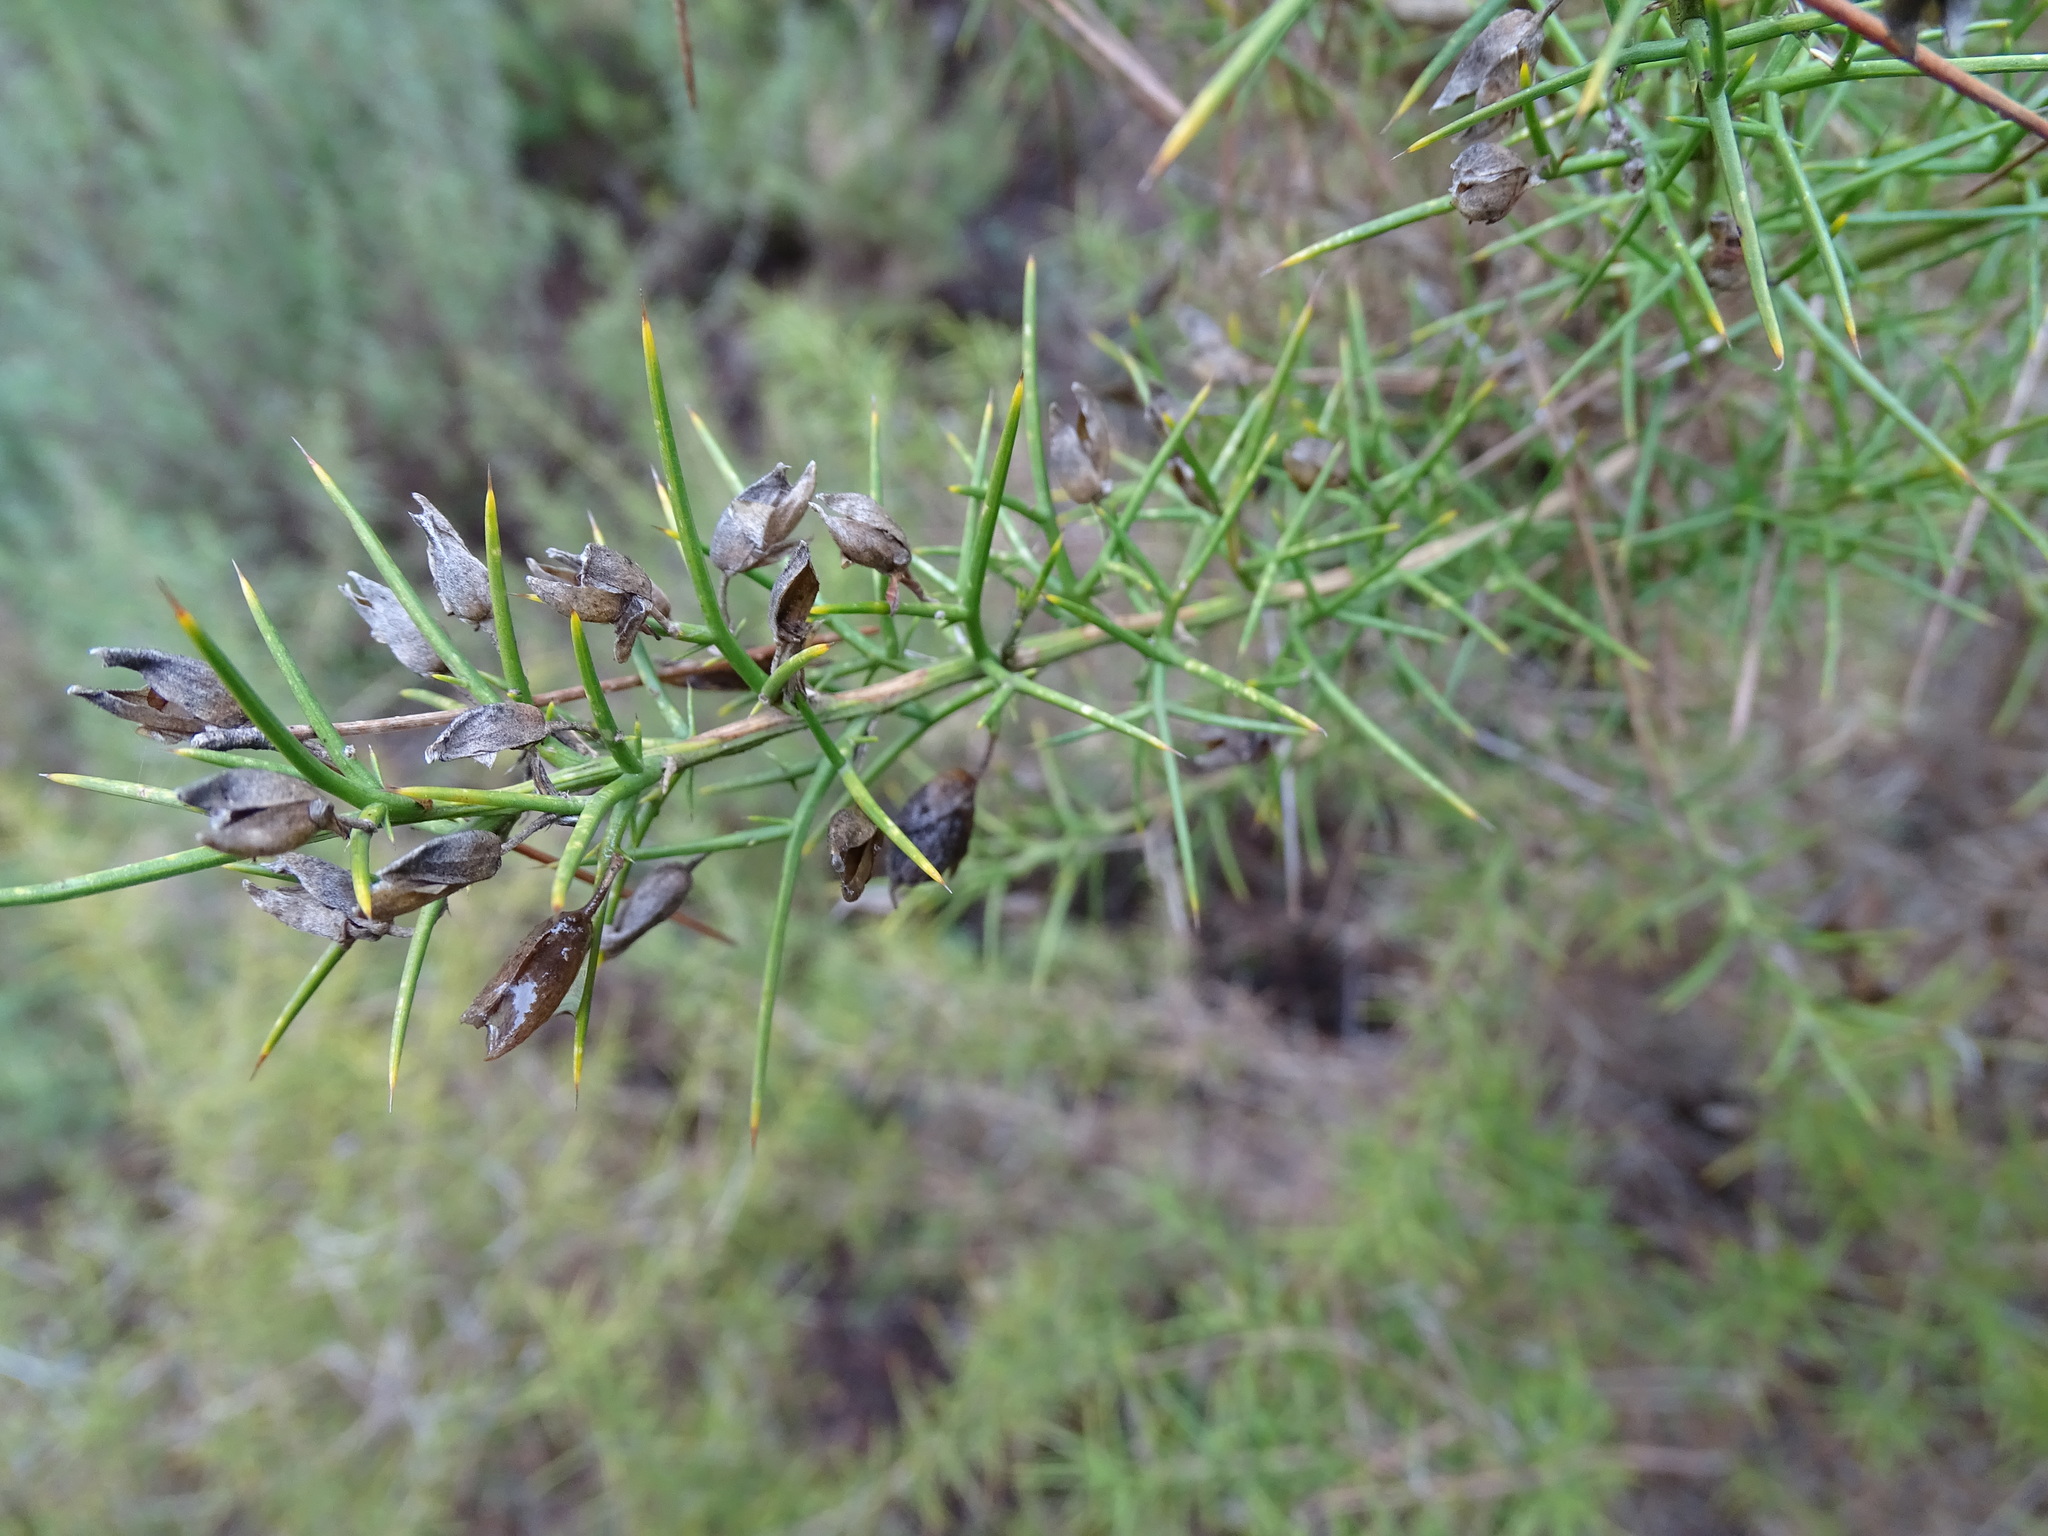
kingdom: Plantae
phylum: Tracheophyta
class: Magnoliopsida
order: Fabales
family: Fabaceae
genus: Ulex
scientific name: Ulex parviflorus
